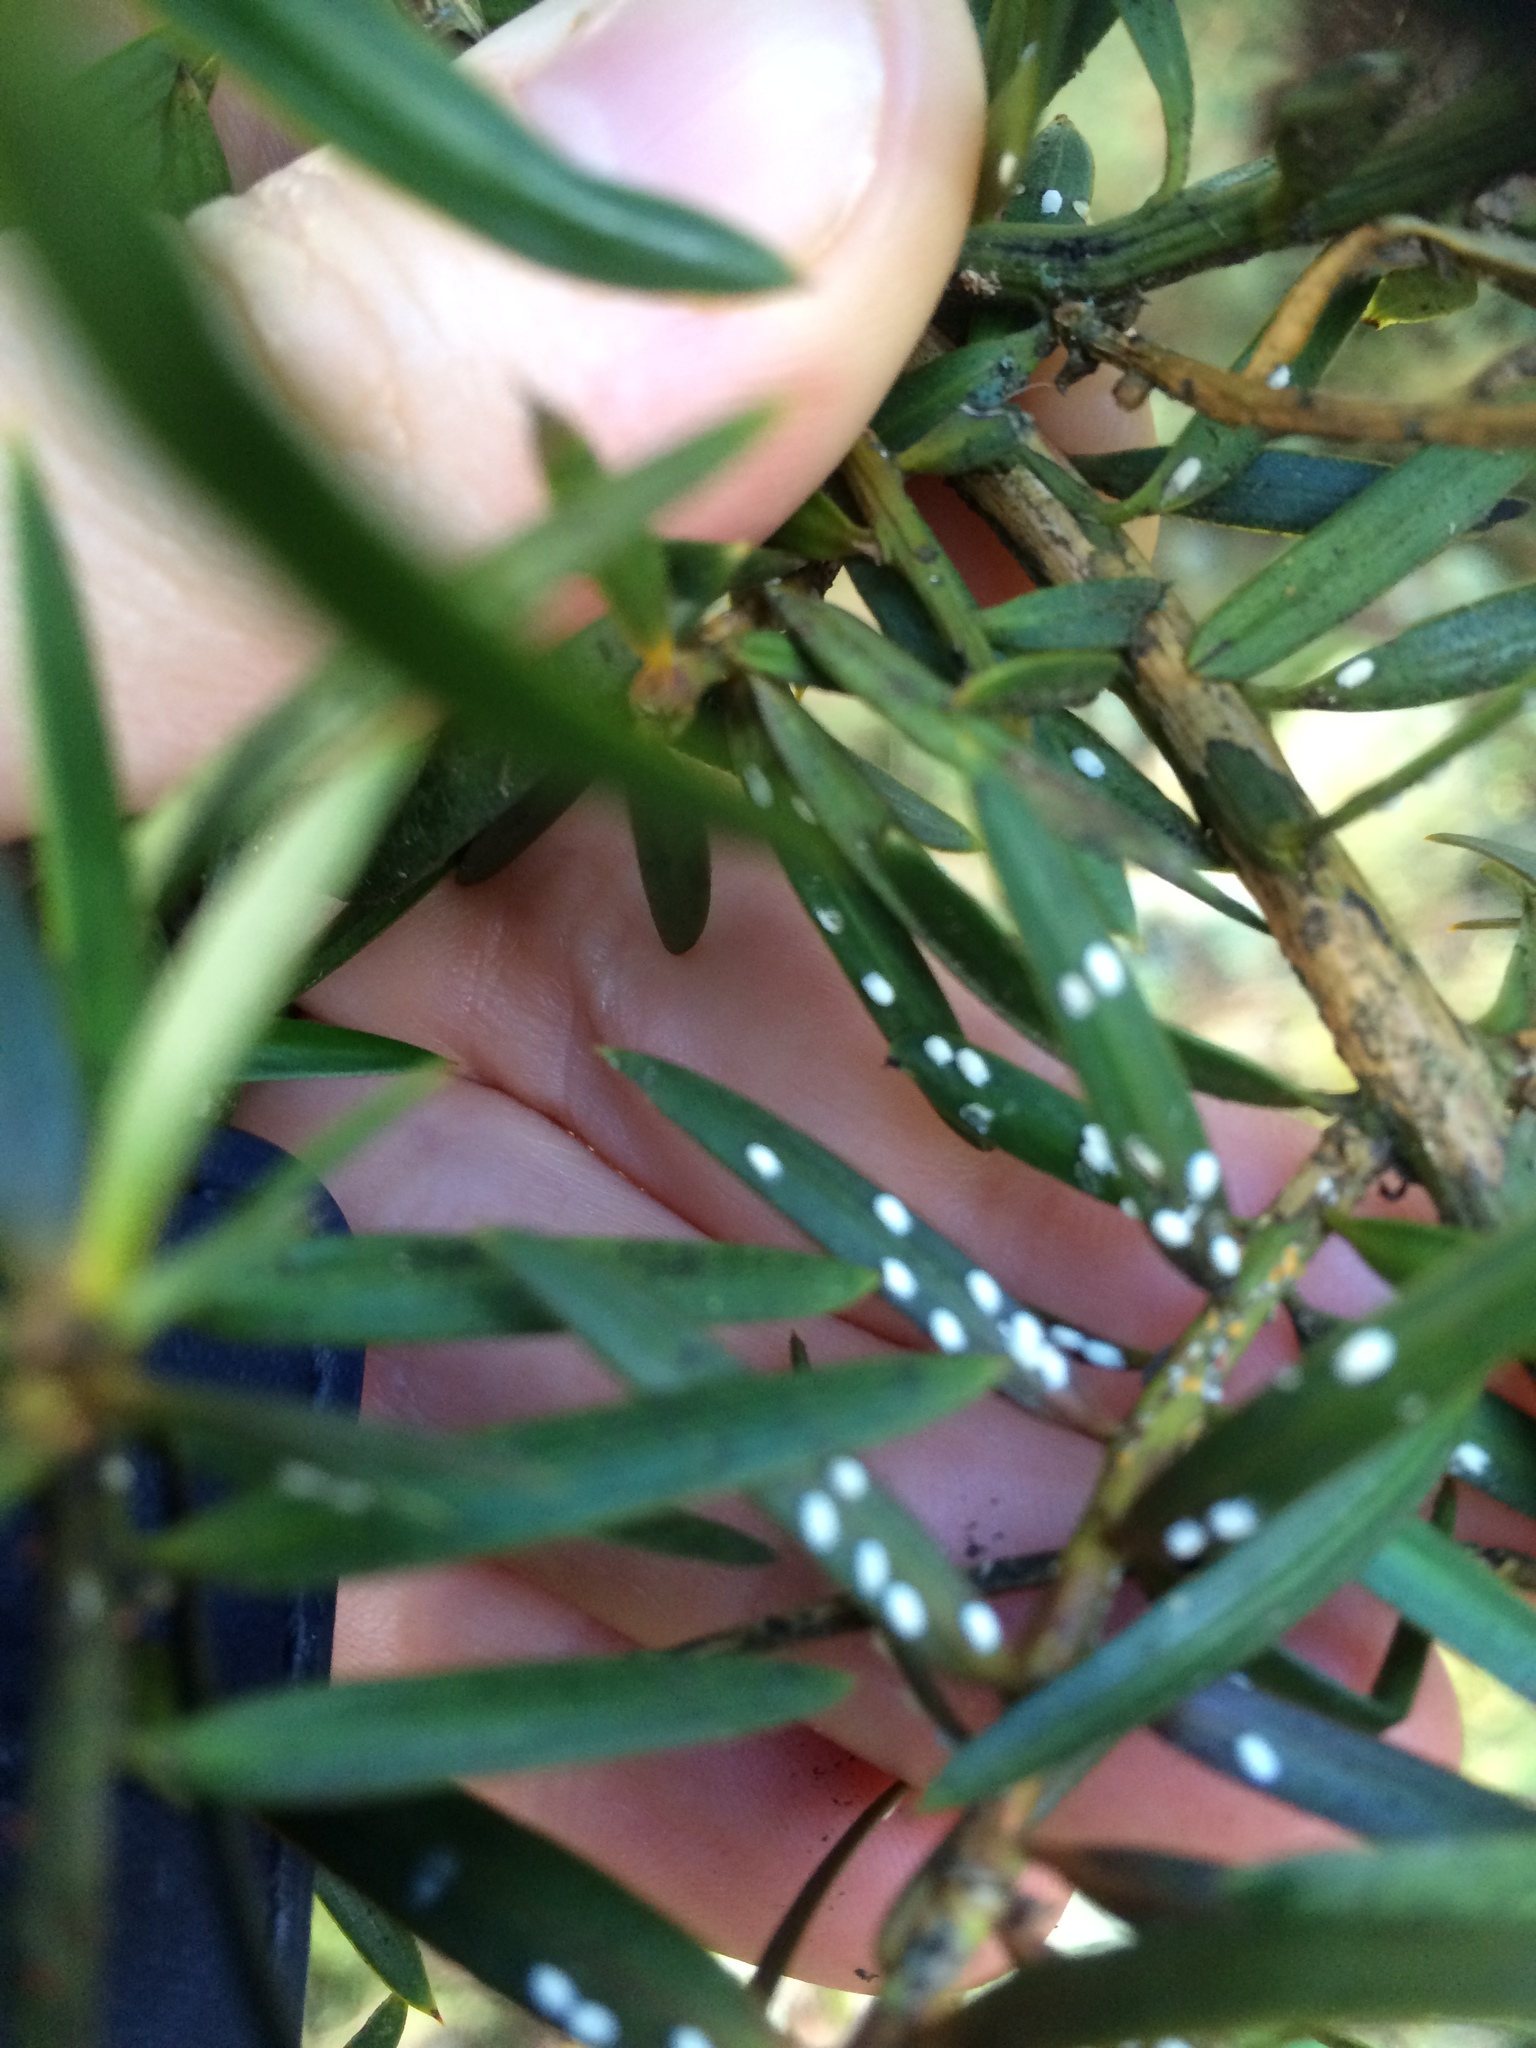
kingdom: Animalia
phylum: Arthropoda
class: Insecta
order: Hemiptera
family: Eriococcidae
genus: Madarococcus
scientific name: Madarococcus totarae
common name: Totara rhizococccus
